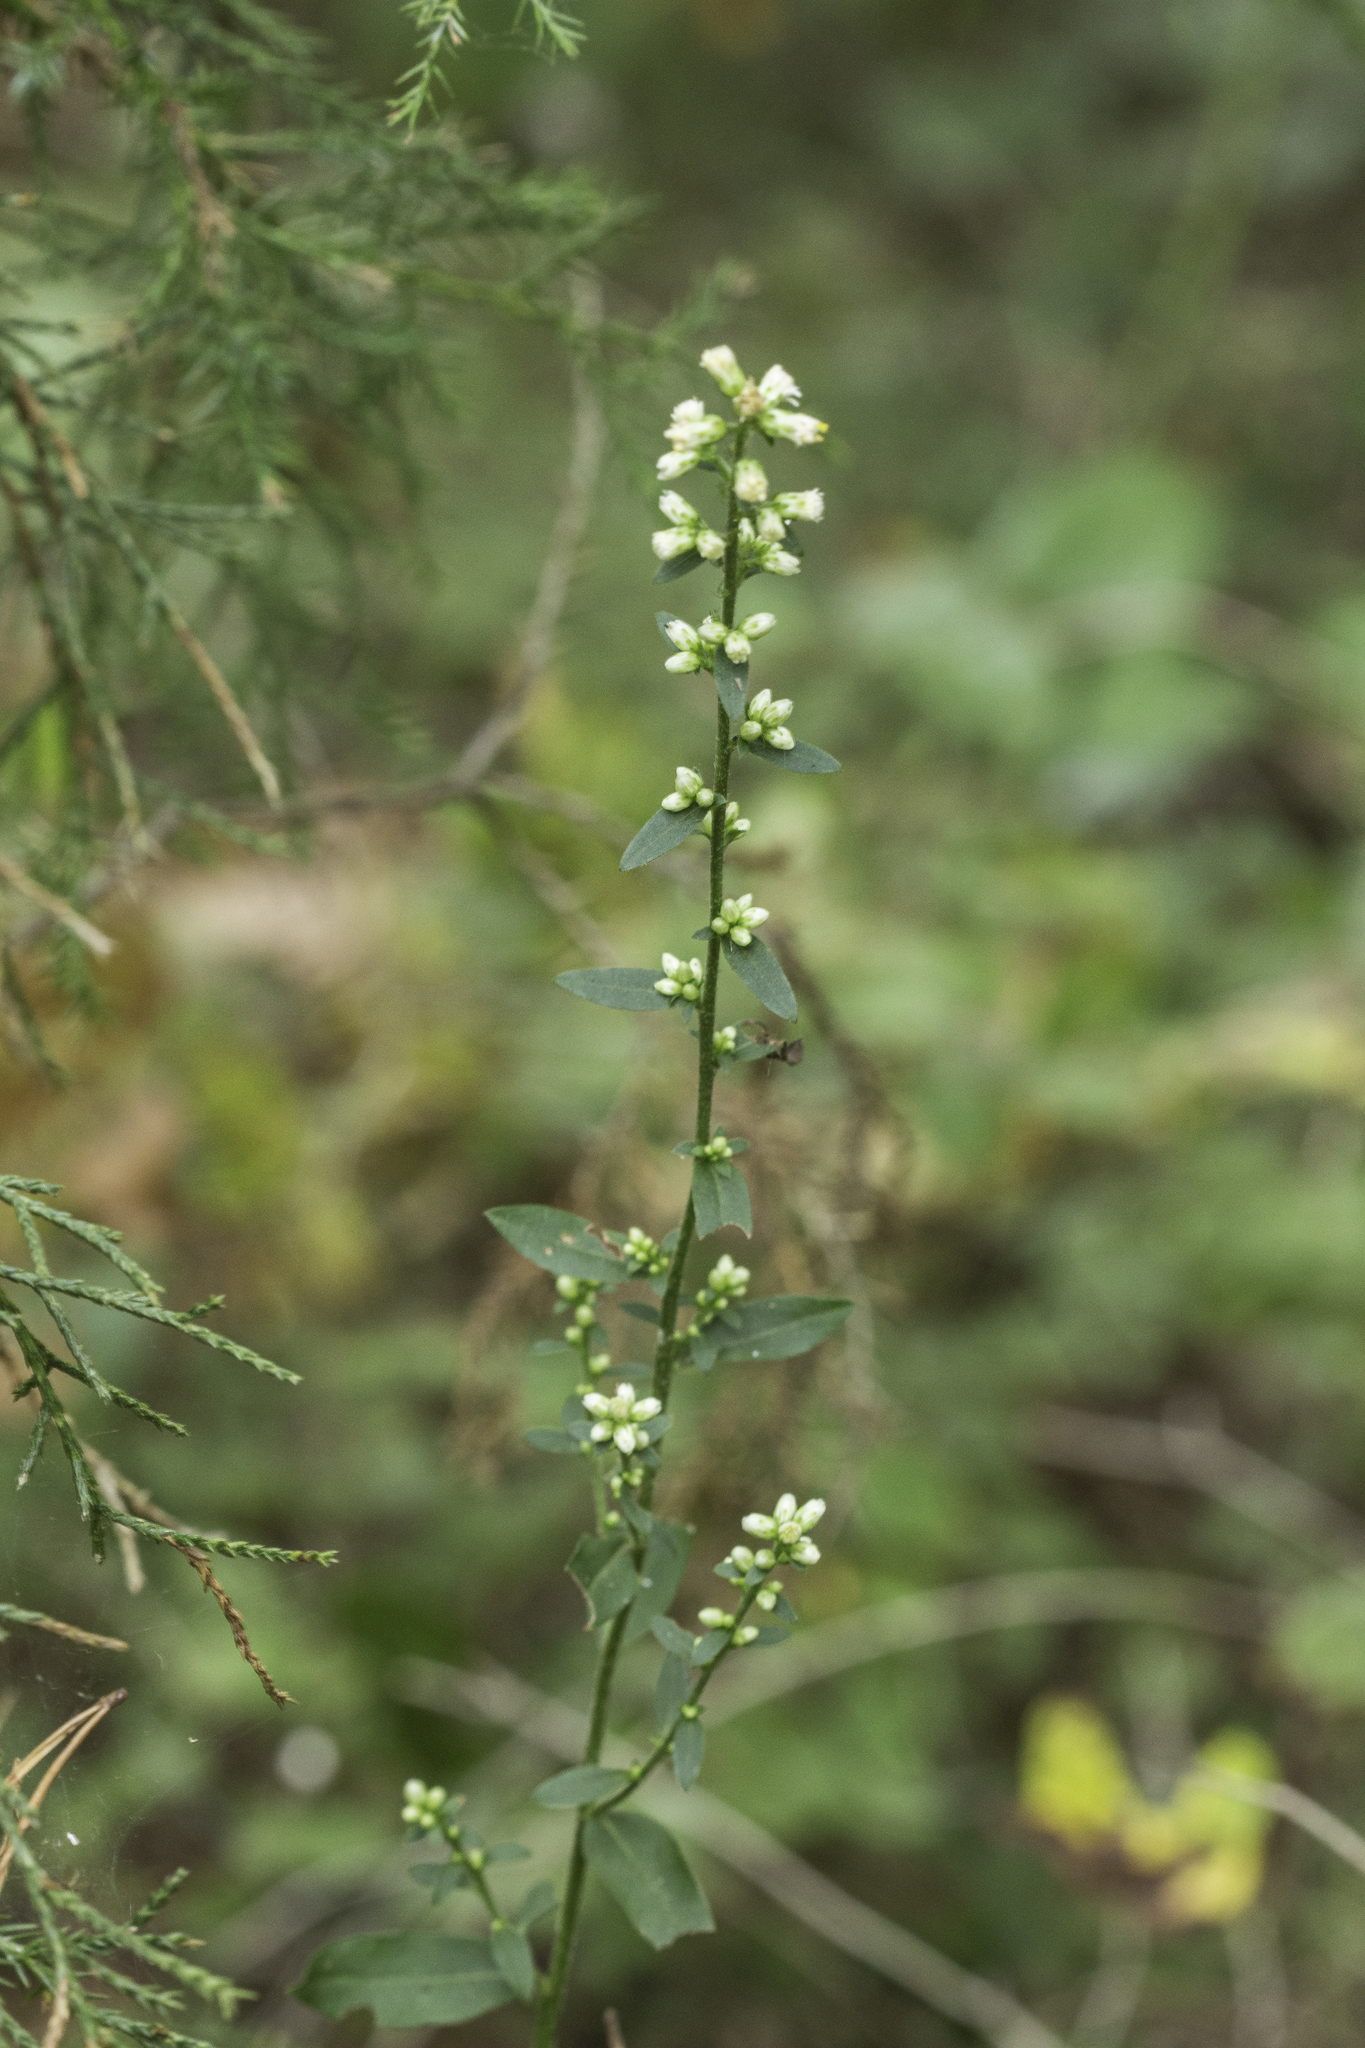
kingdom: Plantae
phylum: Tracheophyta
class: Magnoliopsida
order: Asterales
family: Asteraceae
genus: Solidago
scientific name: Solidago bicolor
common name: Silverrod
